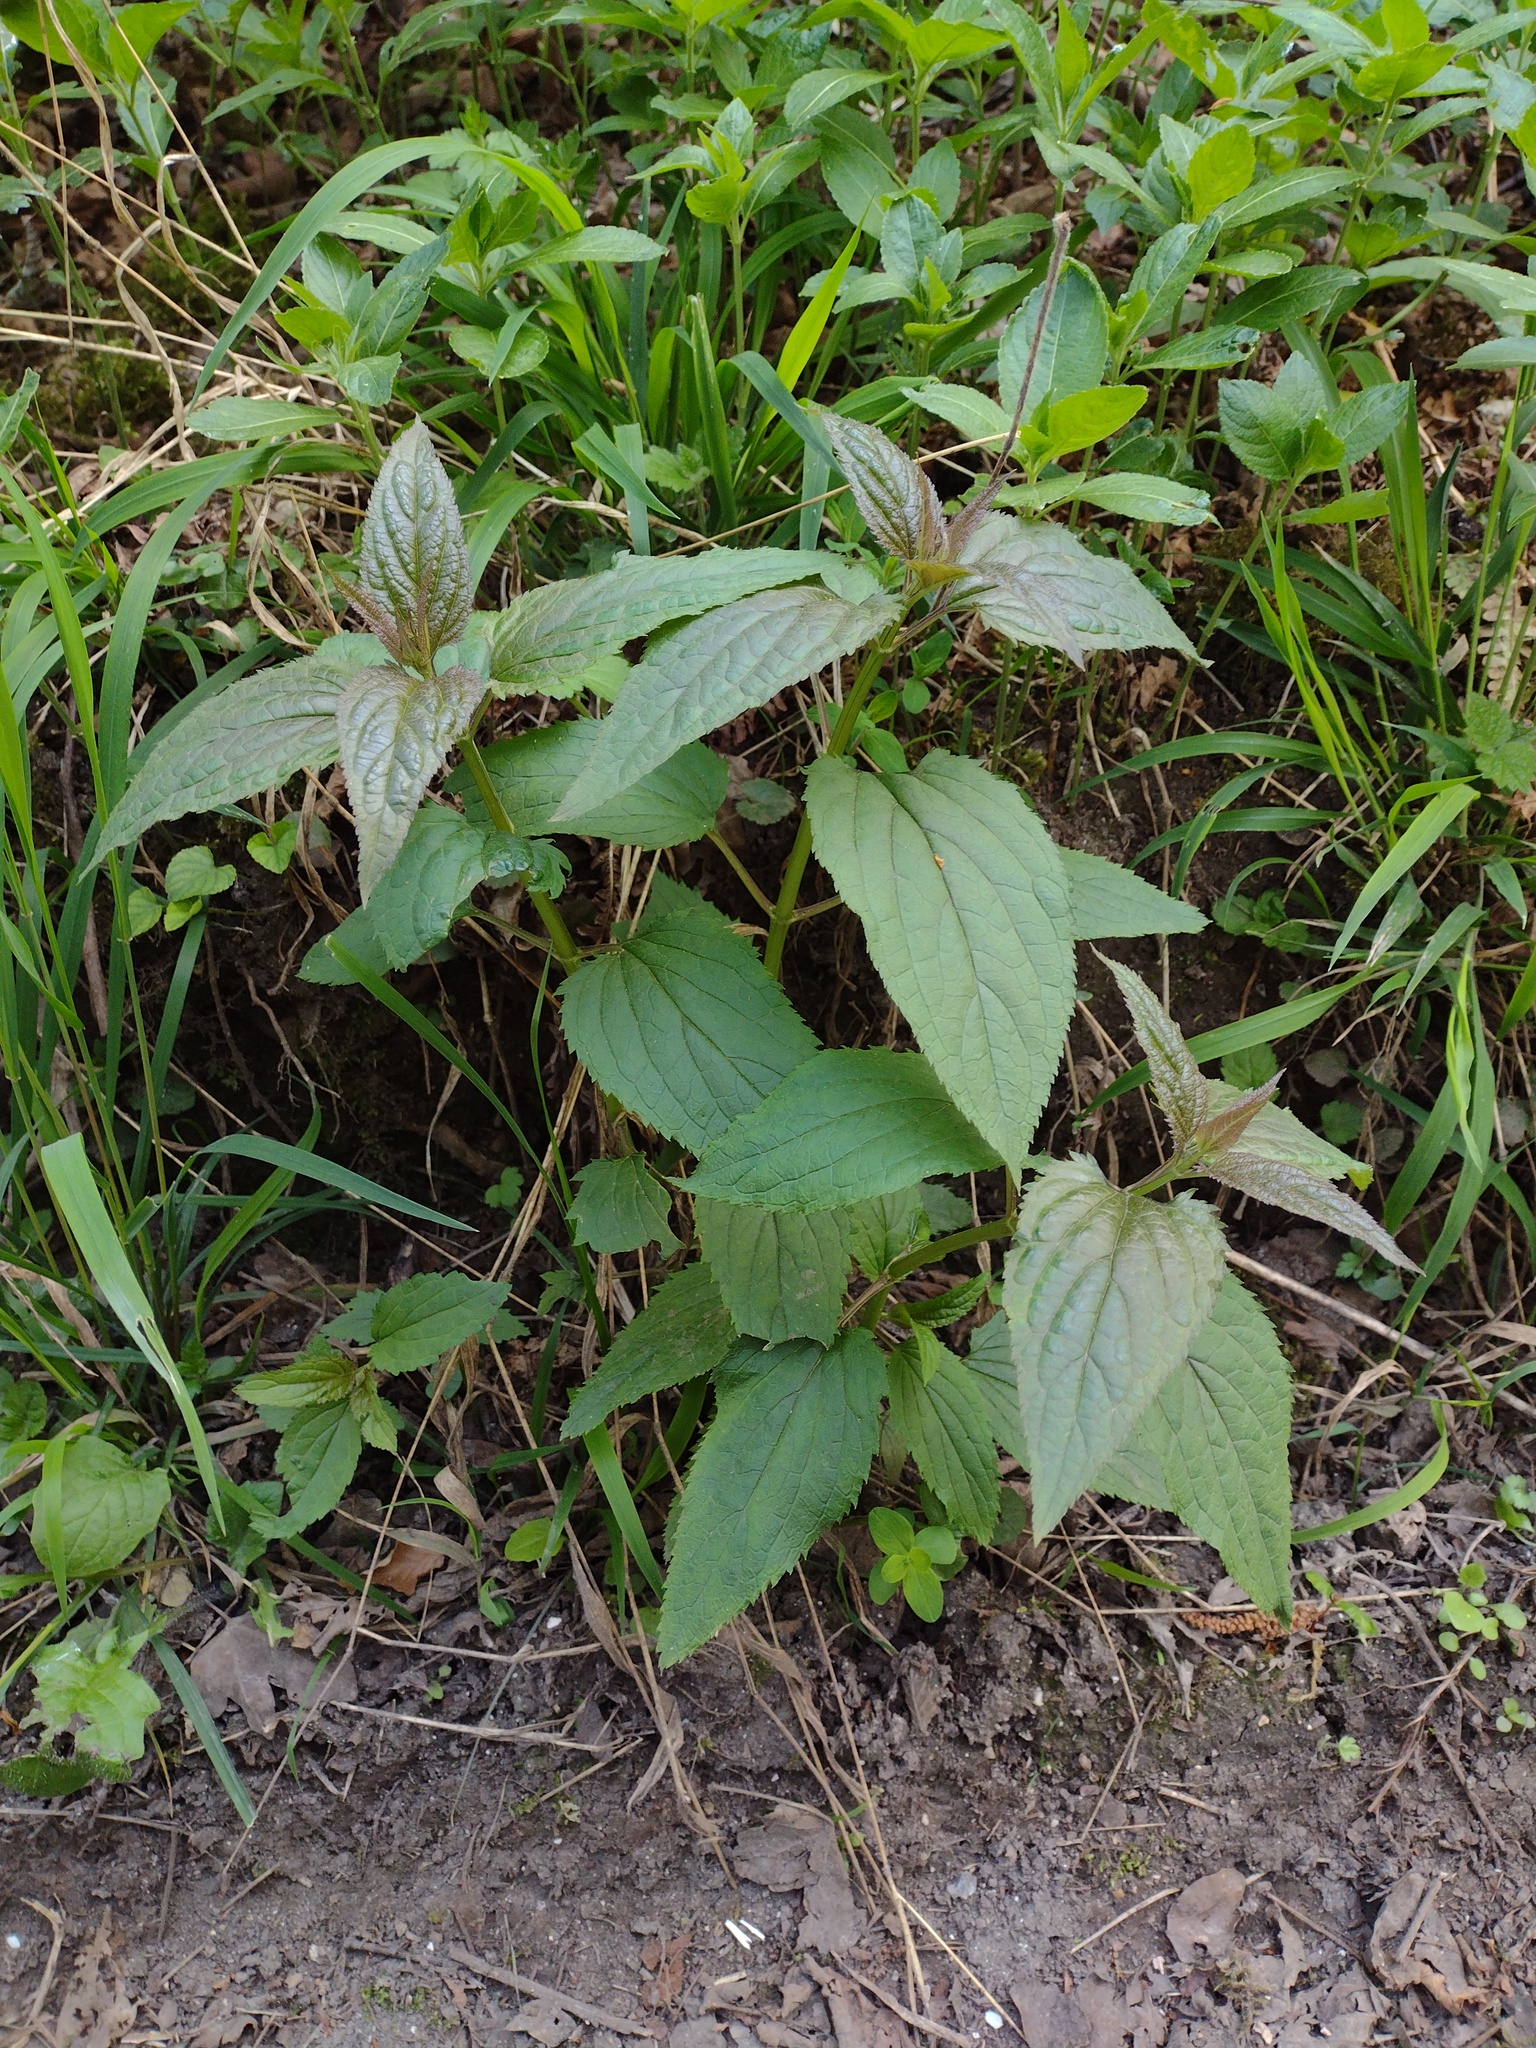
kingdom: Plantae
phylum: Tracheophyta
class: Magnoliopsida
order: Lamiales
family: Scrophulariaceae
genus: Scrophularia
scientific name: Scrophularia nodosa
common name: Common figwort
